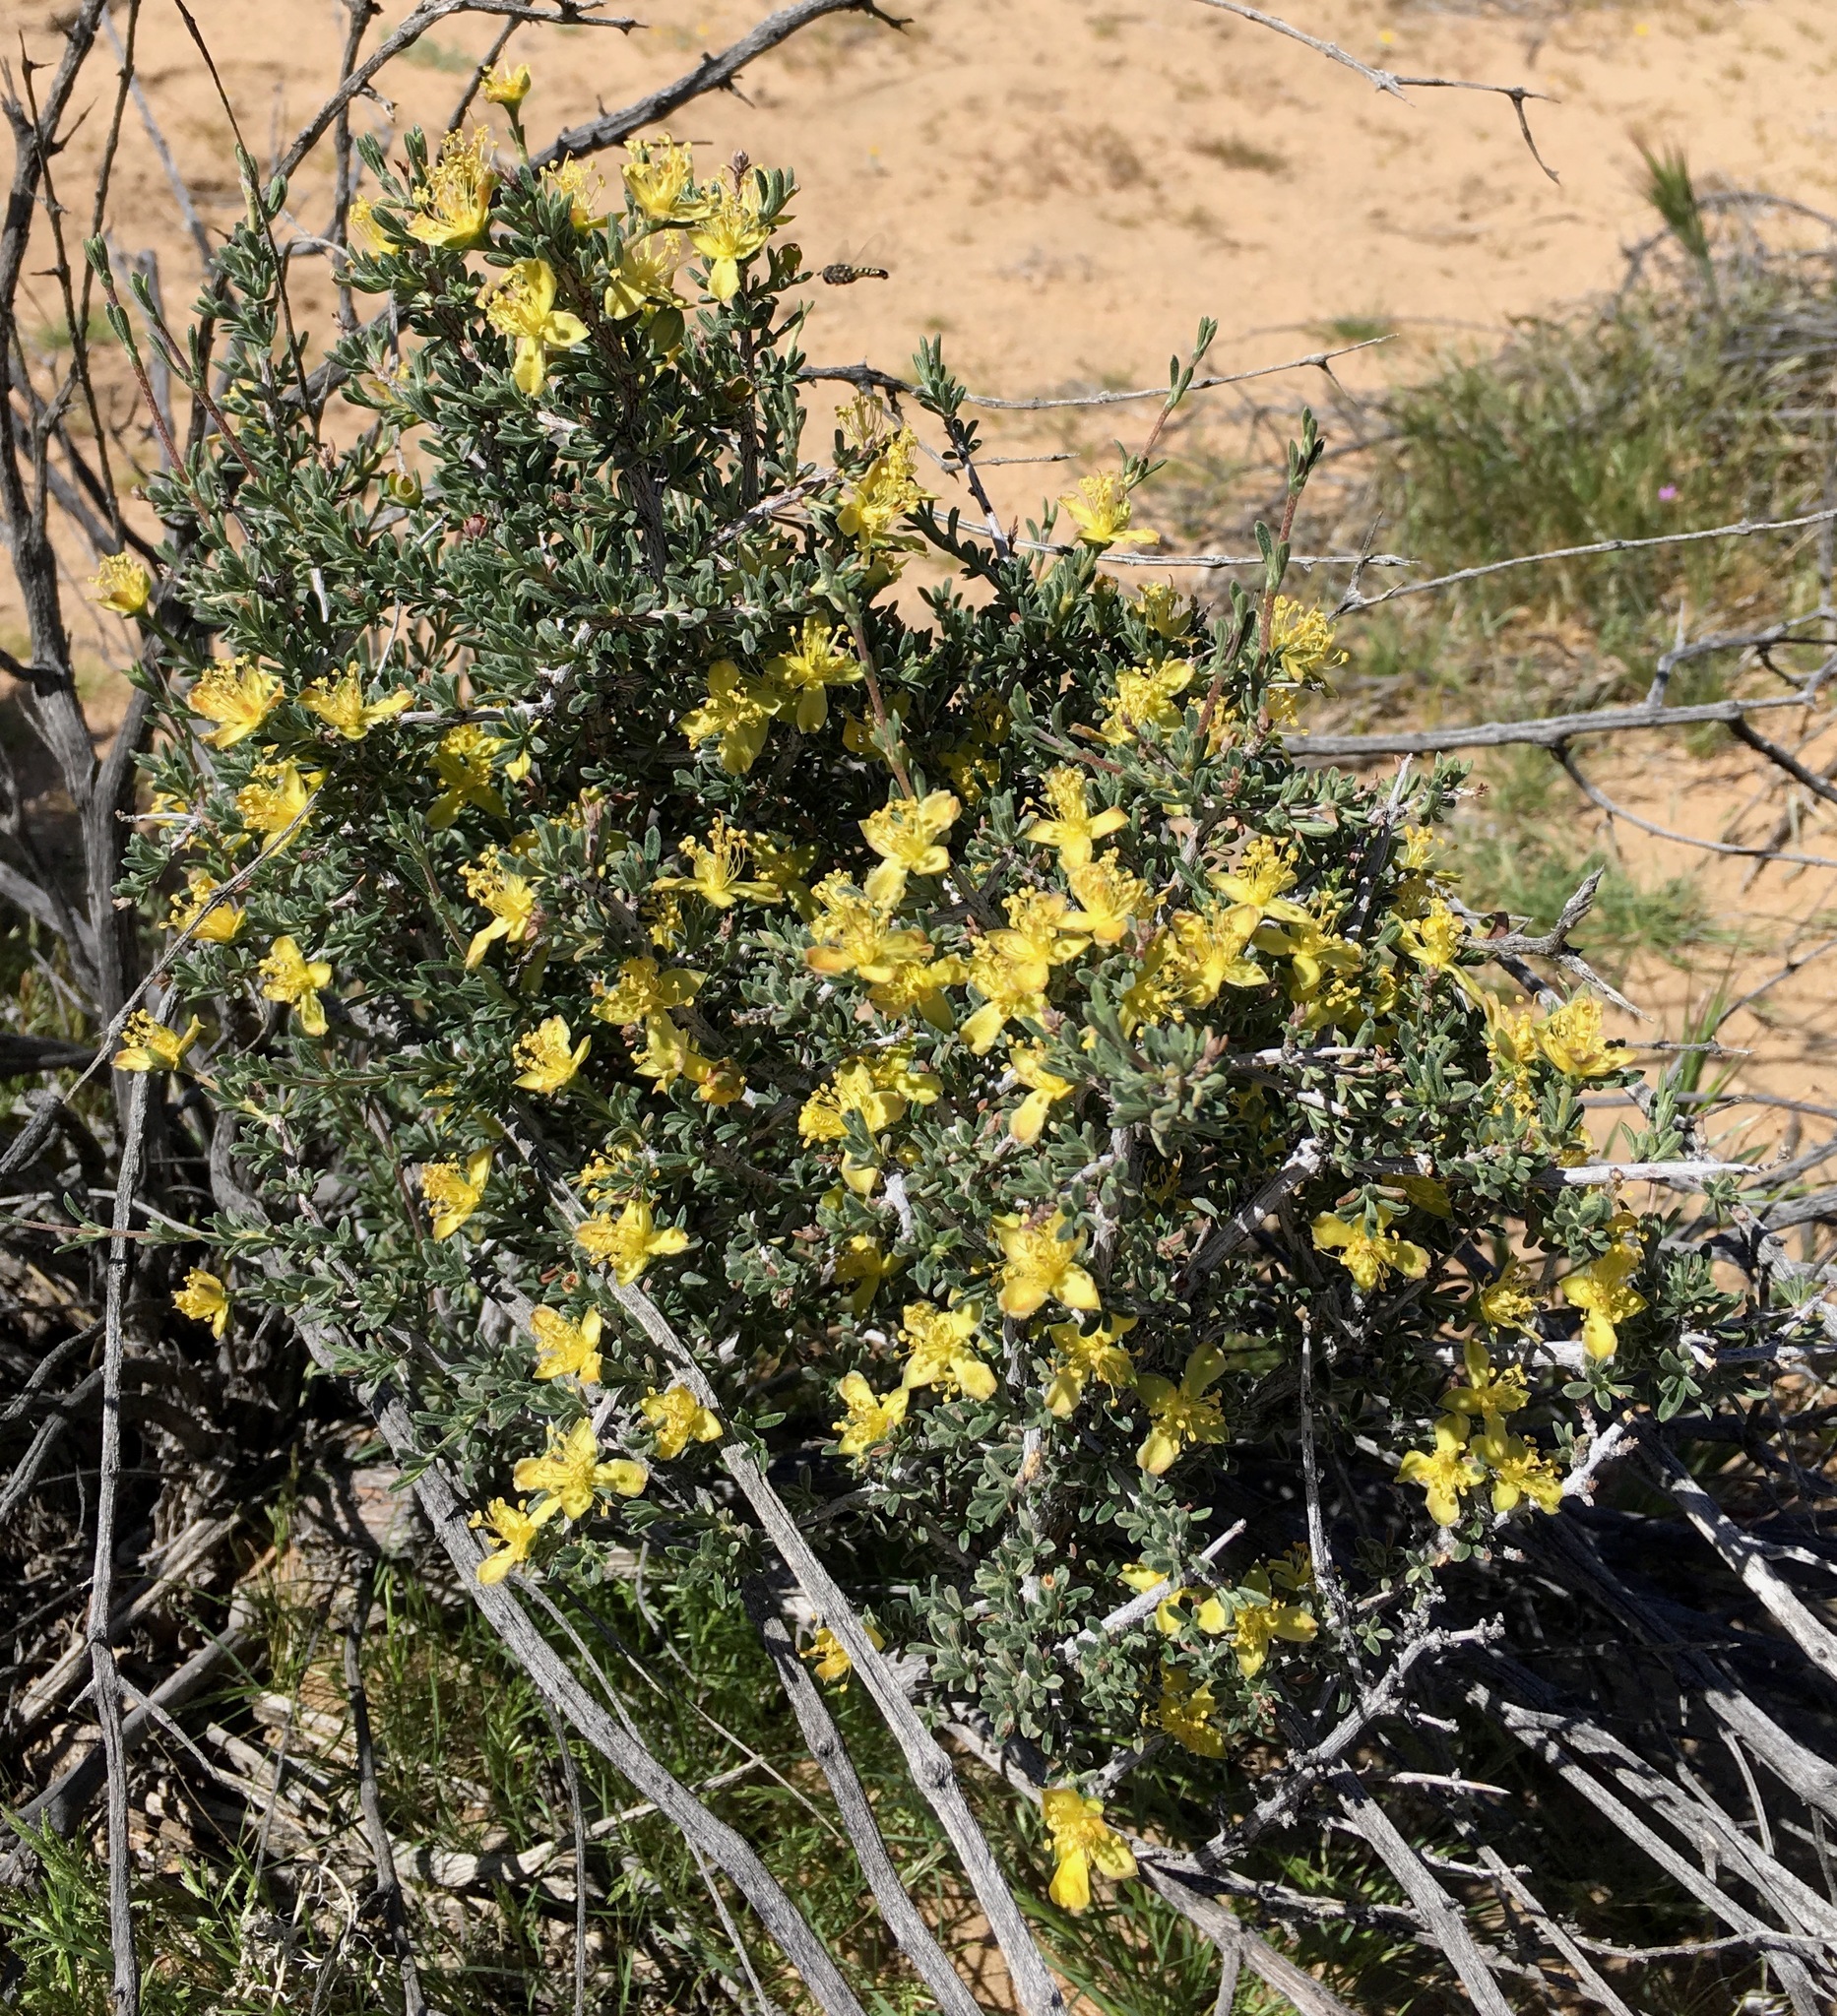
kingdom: Plantae
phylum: Tracheophyta
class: Magnoliopsida
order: Rosales
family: Rosaceae
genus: Coleogyne
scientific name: Coleogyne ramosissima
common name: Blackbrush
